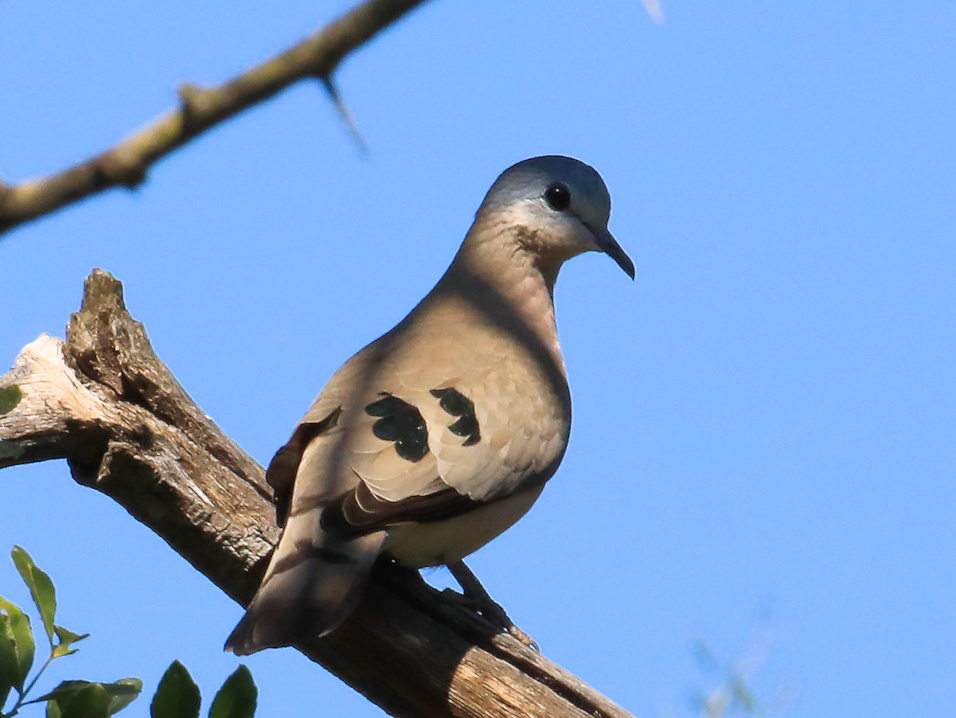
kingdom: Animalia
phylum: Chordata
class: Aves
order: Columbiformes
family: Columbidae
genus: Turtur
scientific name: Turtur chalcospilos
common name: Emerald-spotted wood dove
